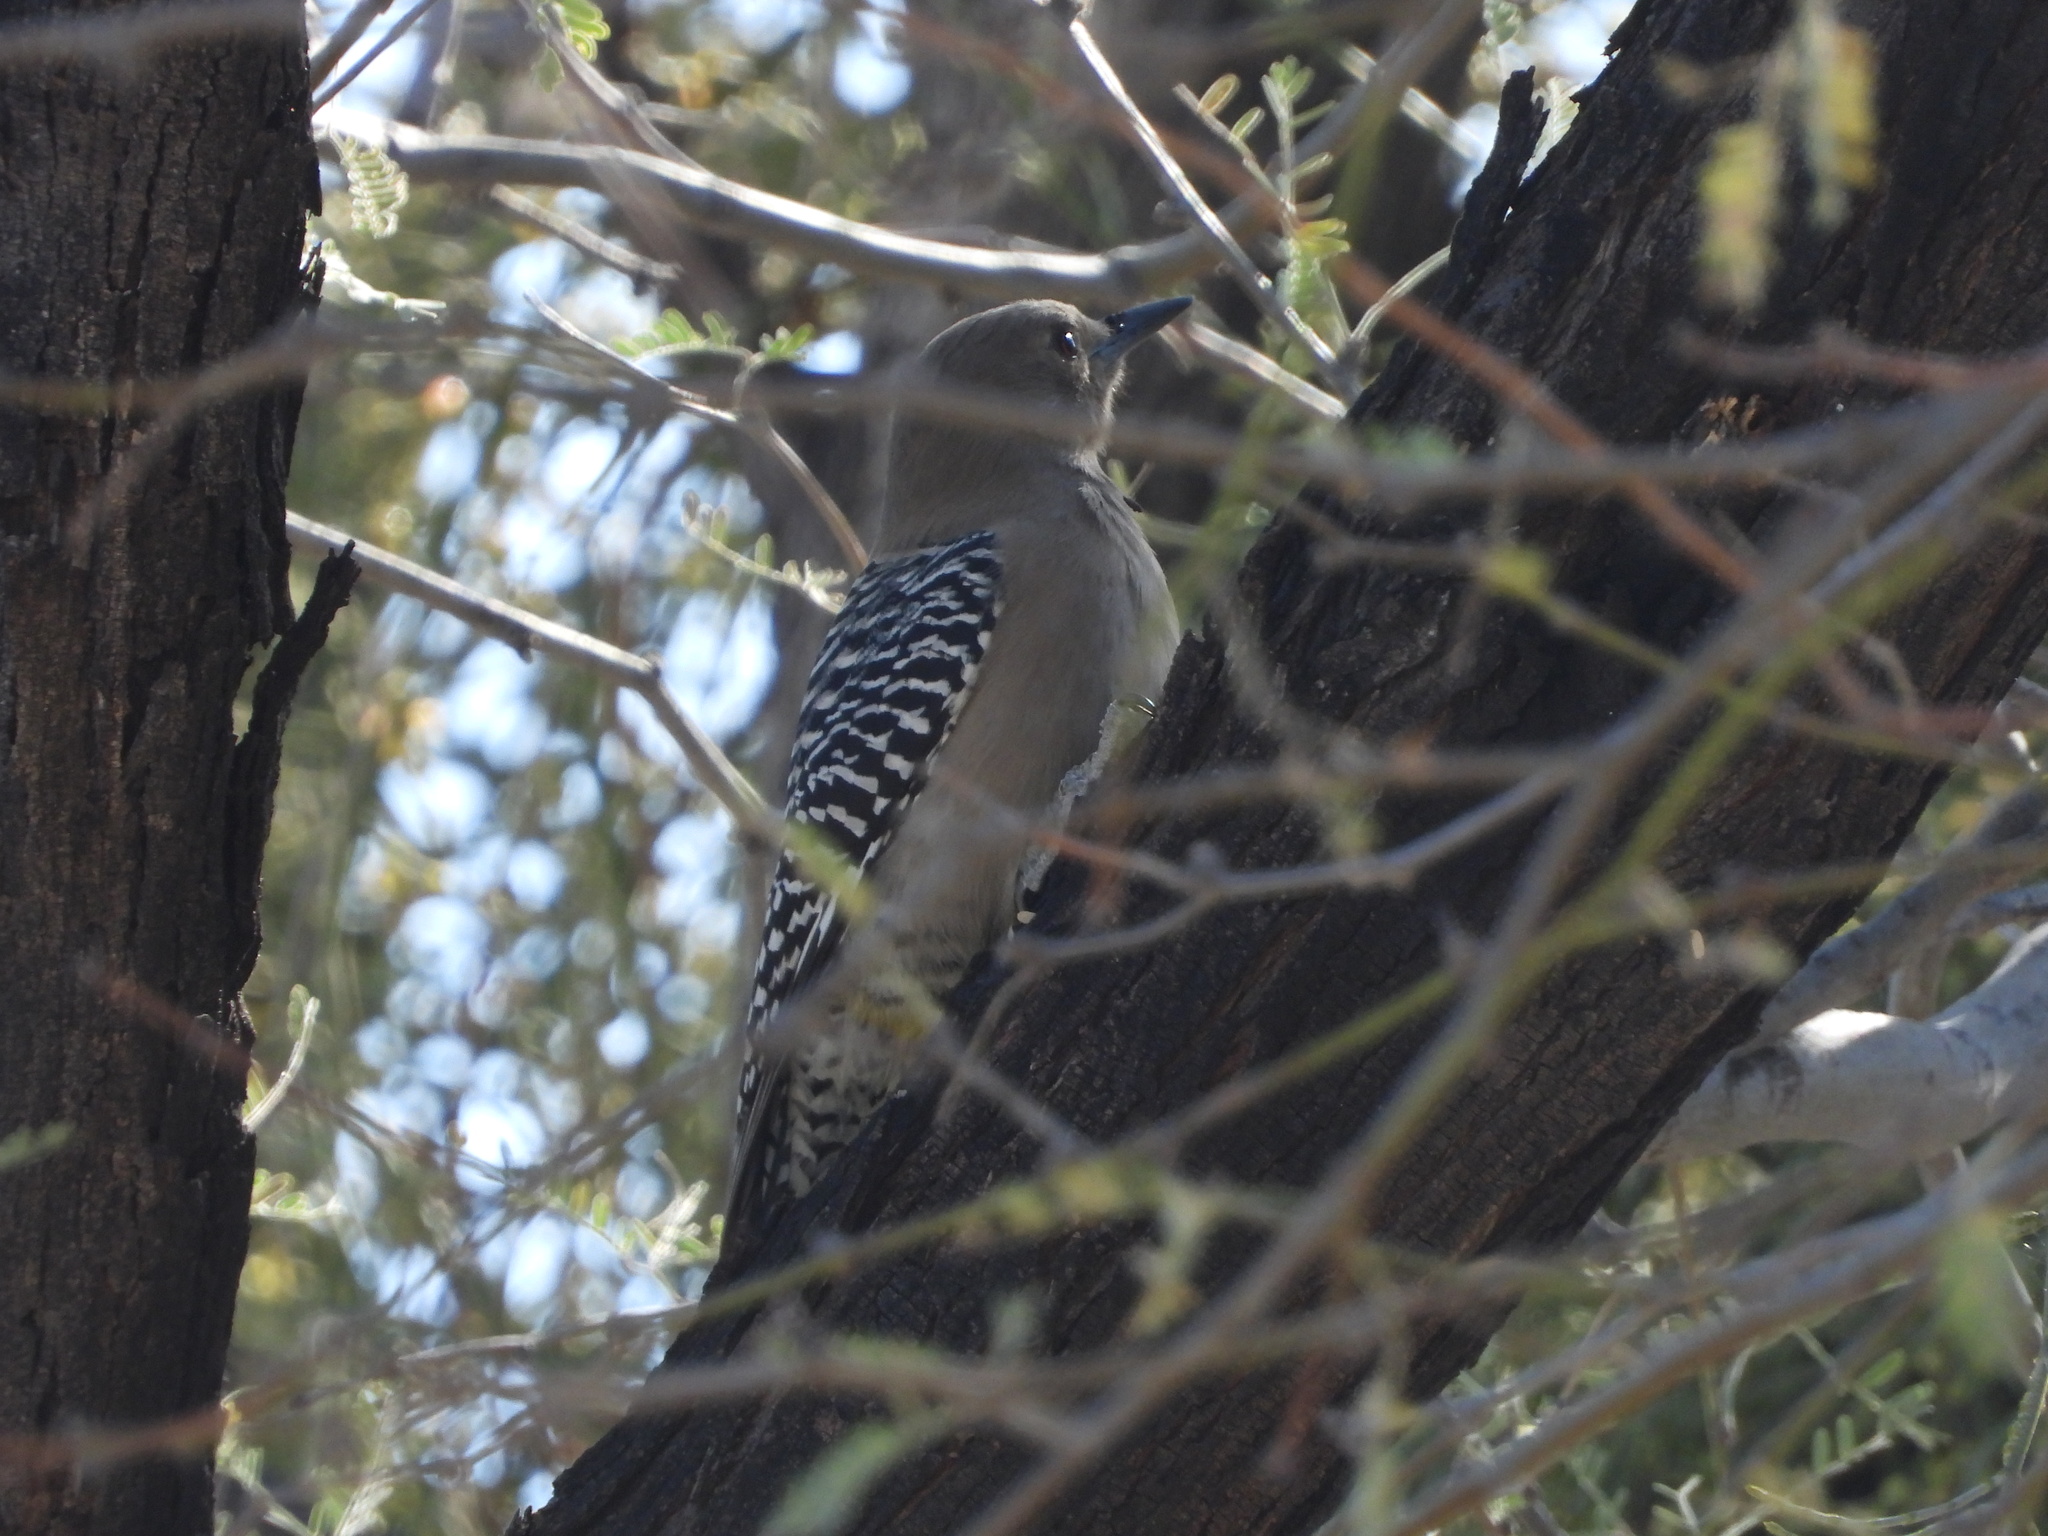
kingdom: Animalia
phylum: Chordata
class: Aves
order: Piciformes
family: Picidae
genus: Melanerpes
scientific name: Melanerpes uropygialis
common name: Gila woodpecker
